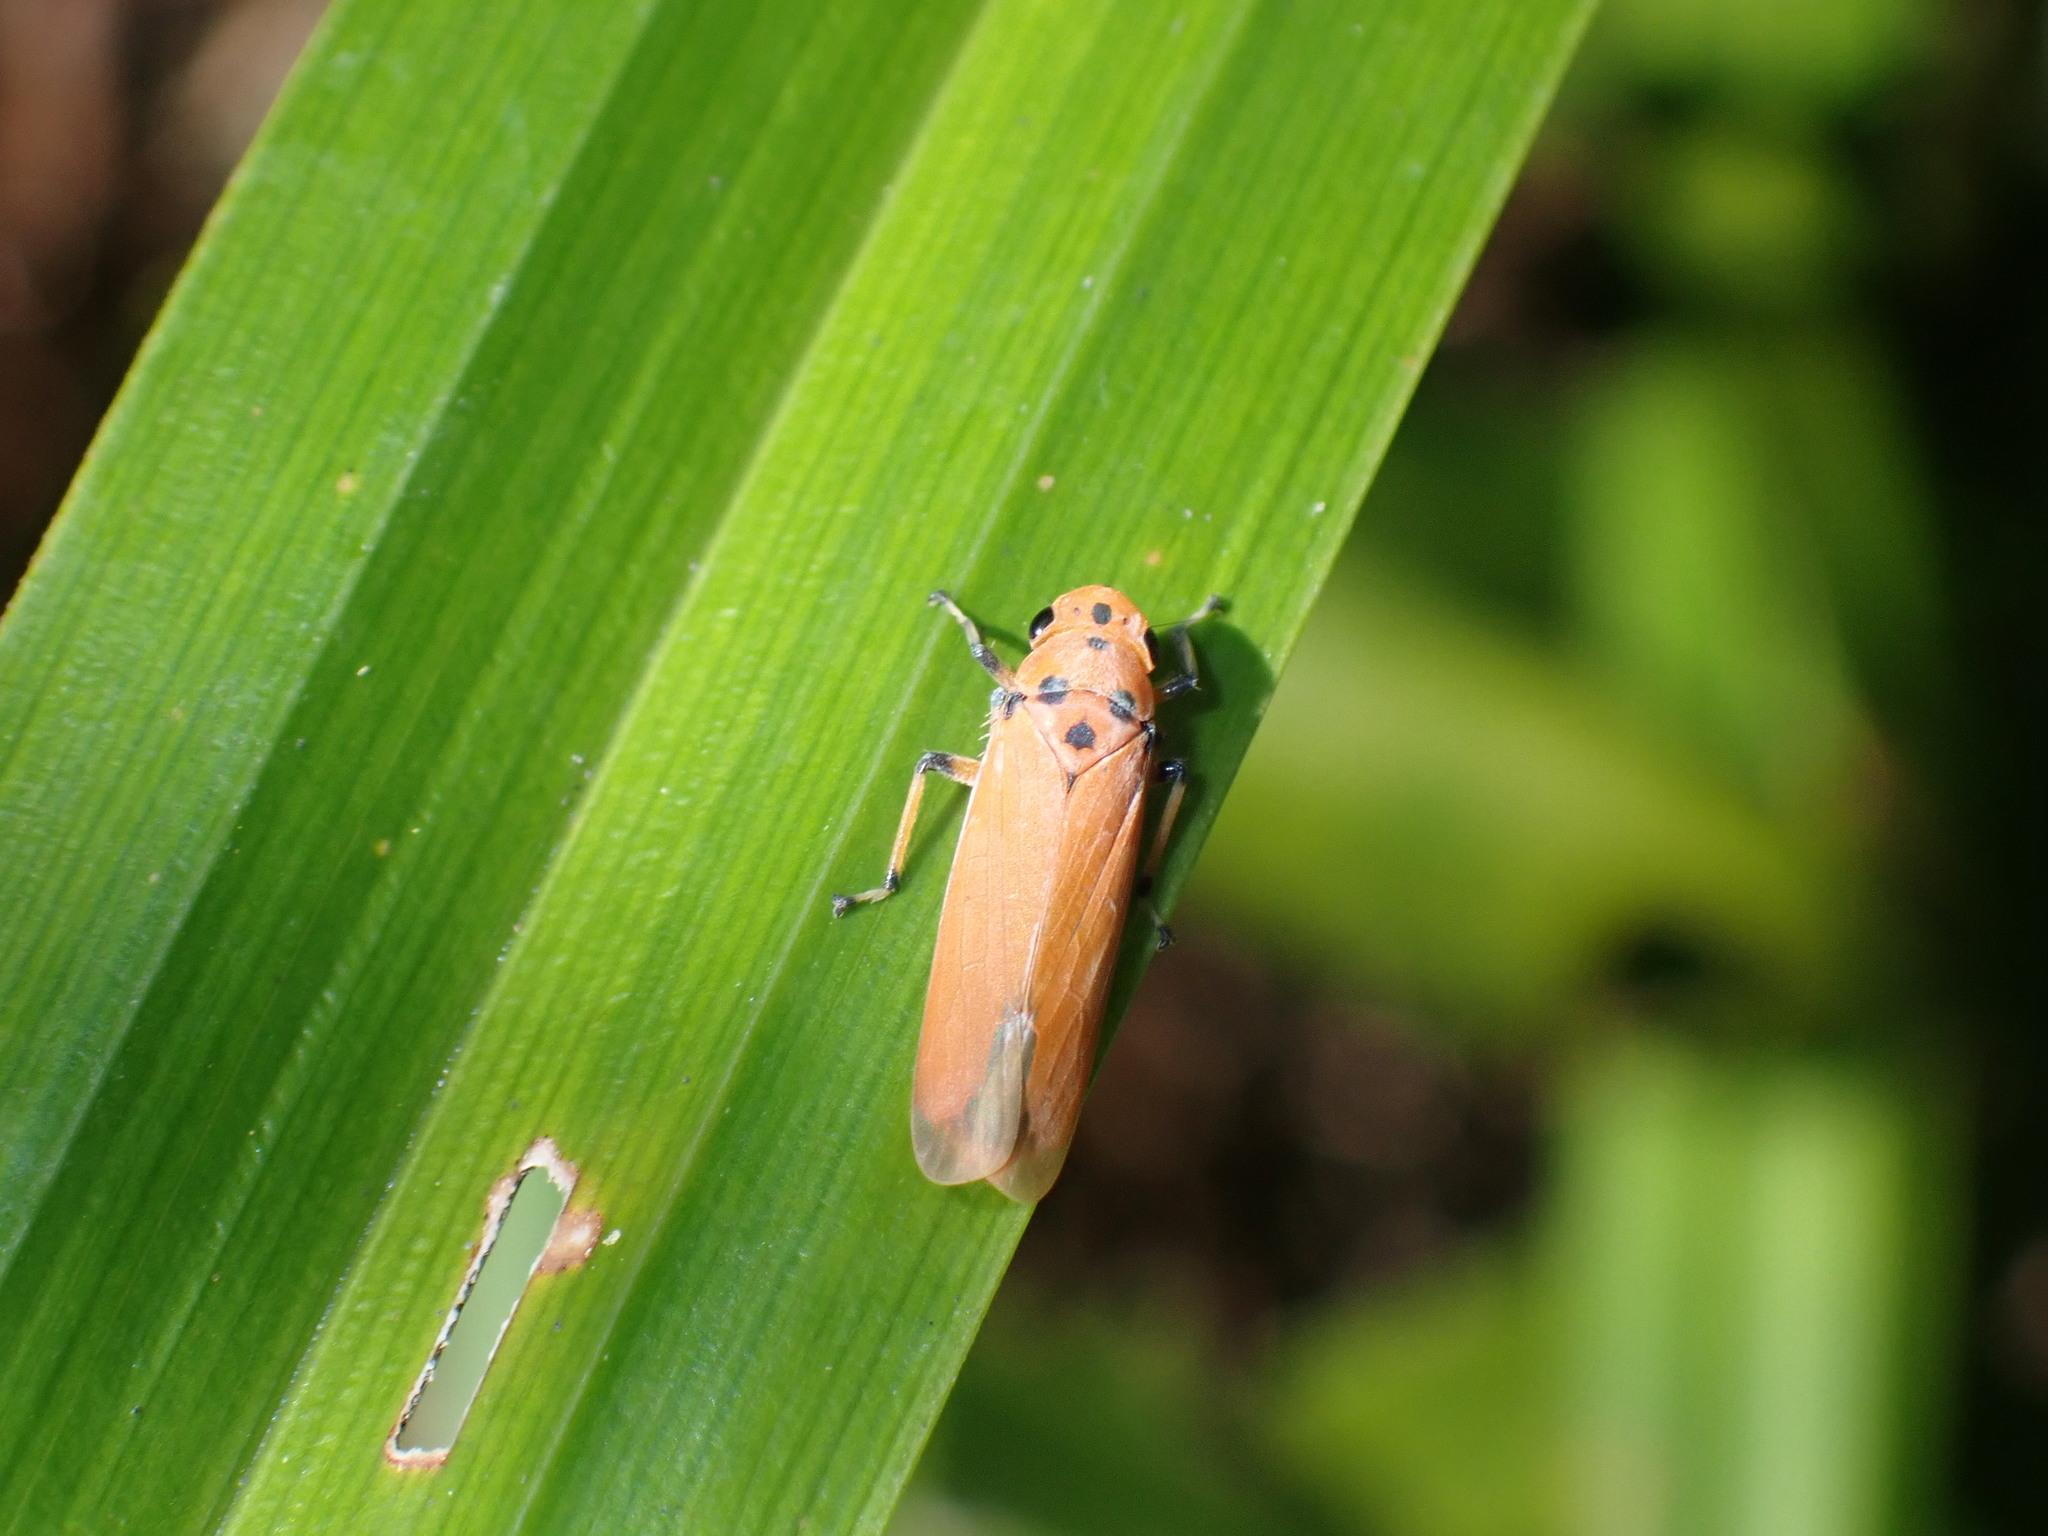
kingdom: Animalia
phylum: Arthropoda
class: Insecta
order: Hemiptera
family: Cicadellidae
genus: Bothrogonia
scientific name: Bothrogonia addita
